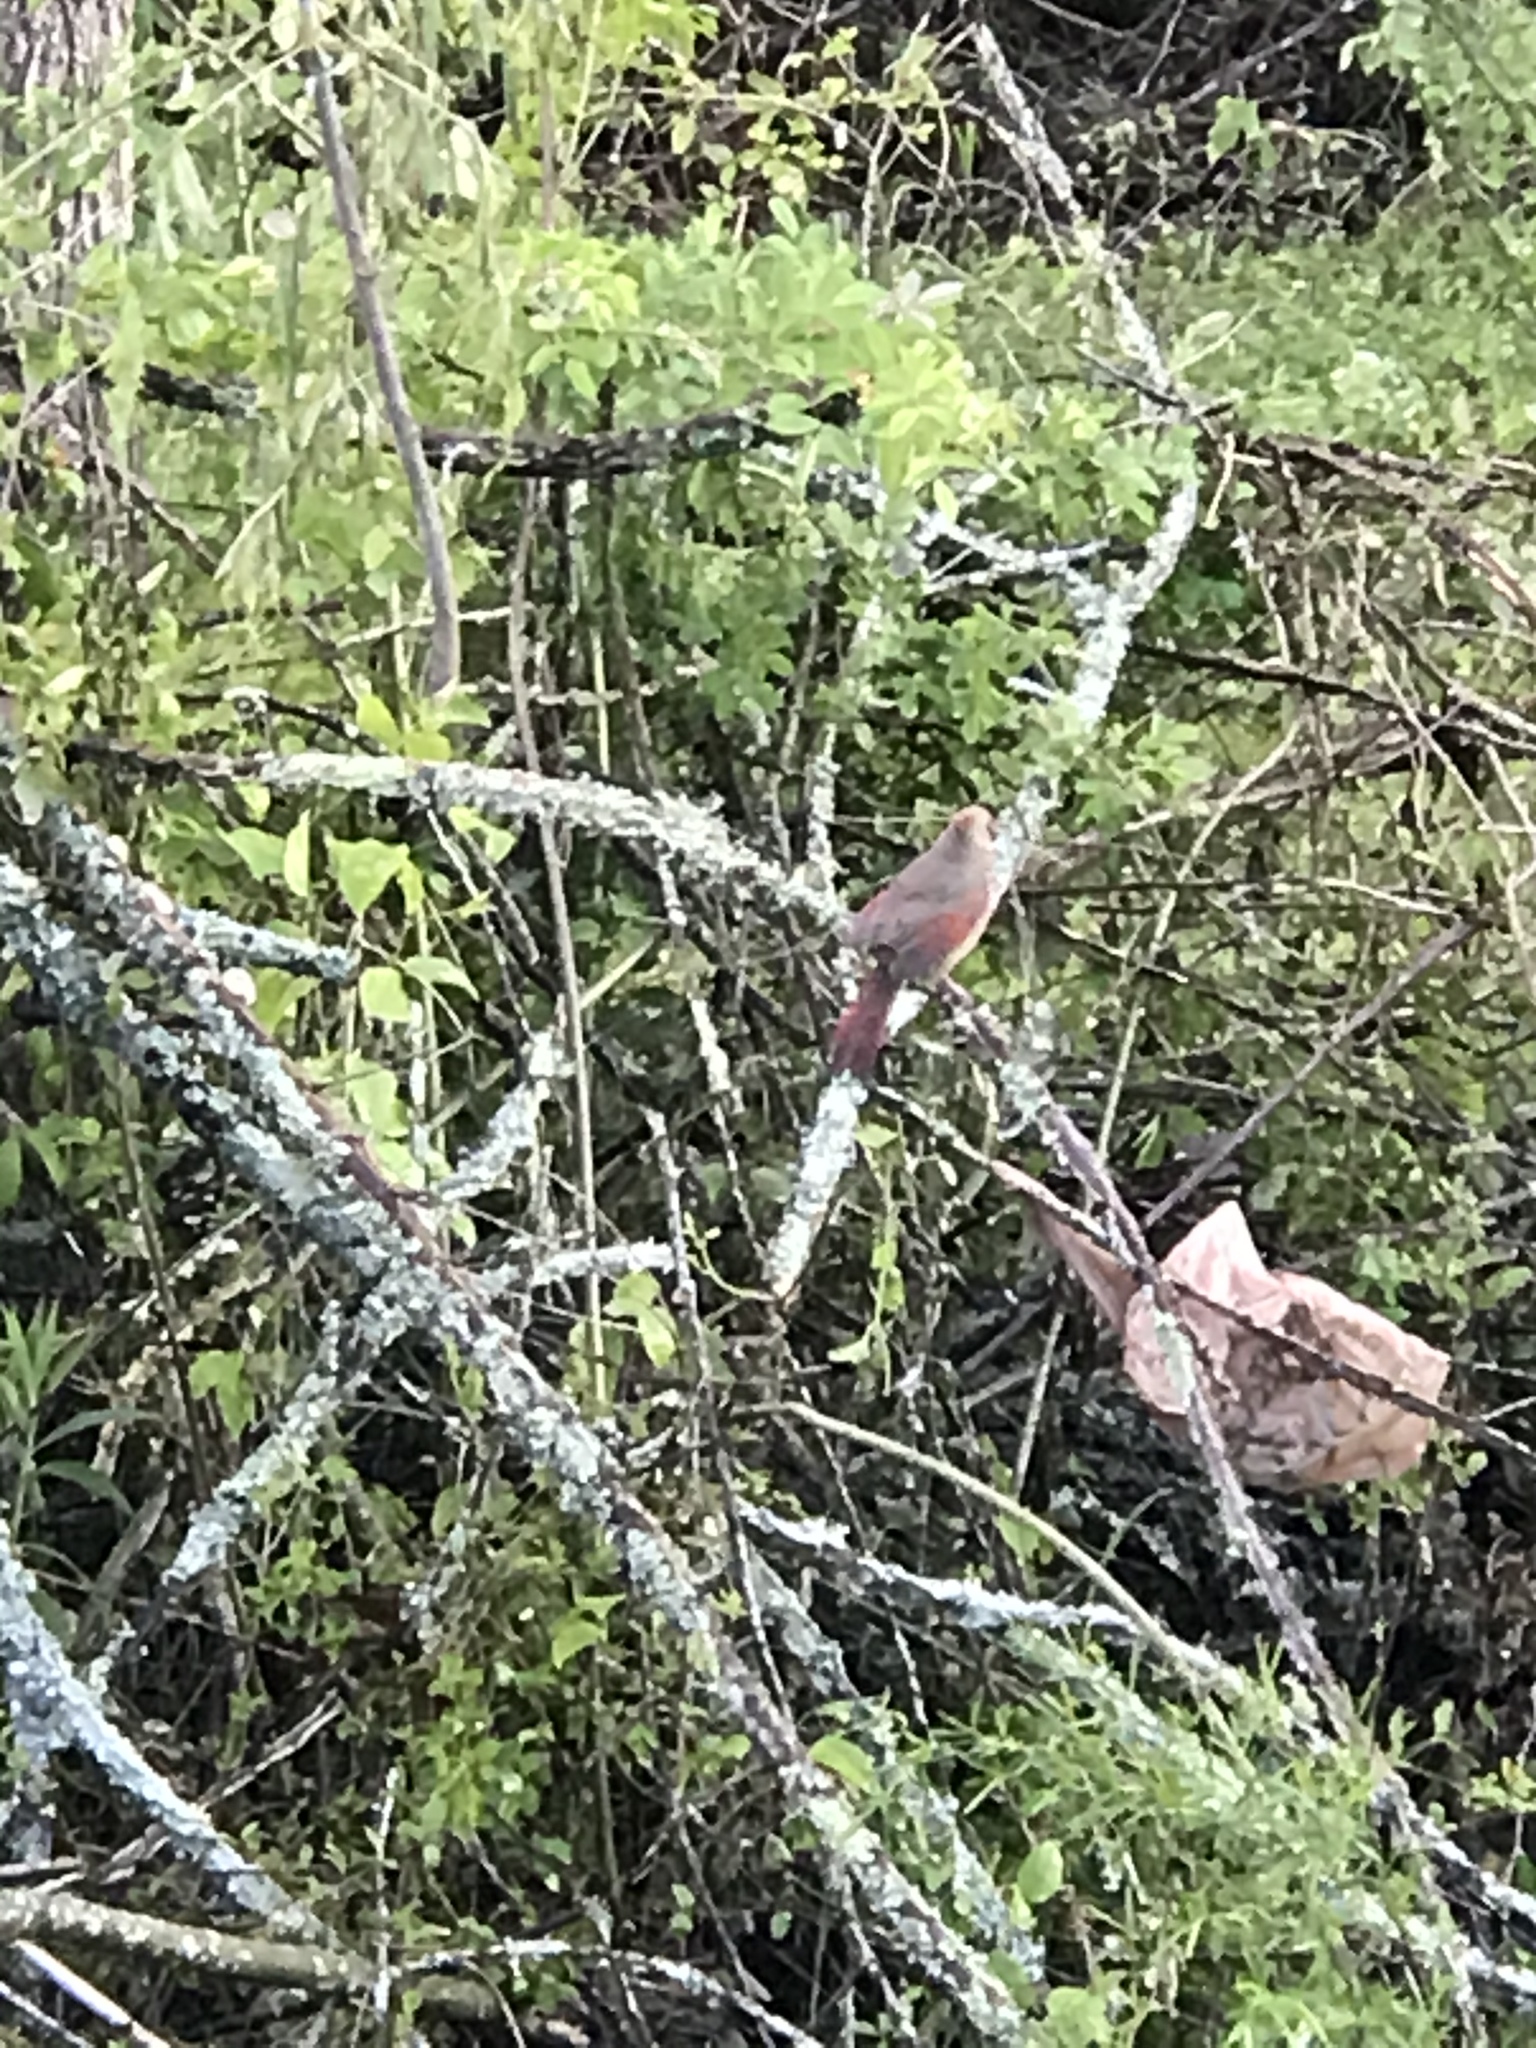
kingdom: Animalia
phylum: Chordata
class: Aves
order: Passeriformes
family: Cardinalidae
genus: Cardinalis
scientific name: Cardinalis cardinalis
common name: Northern cardinal
